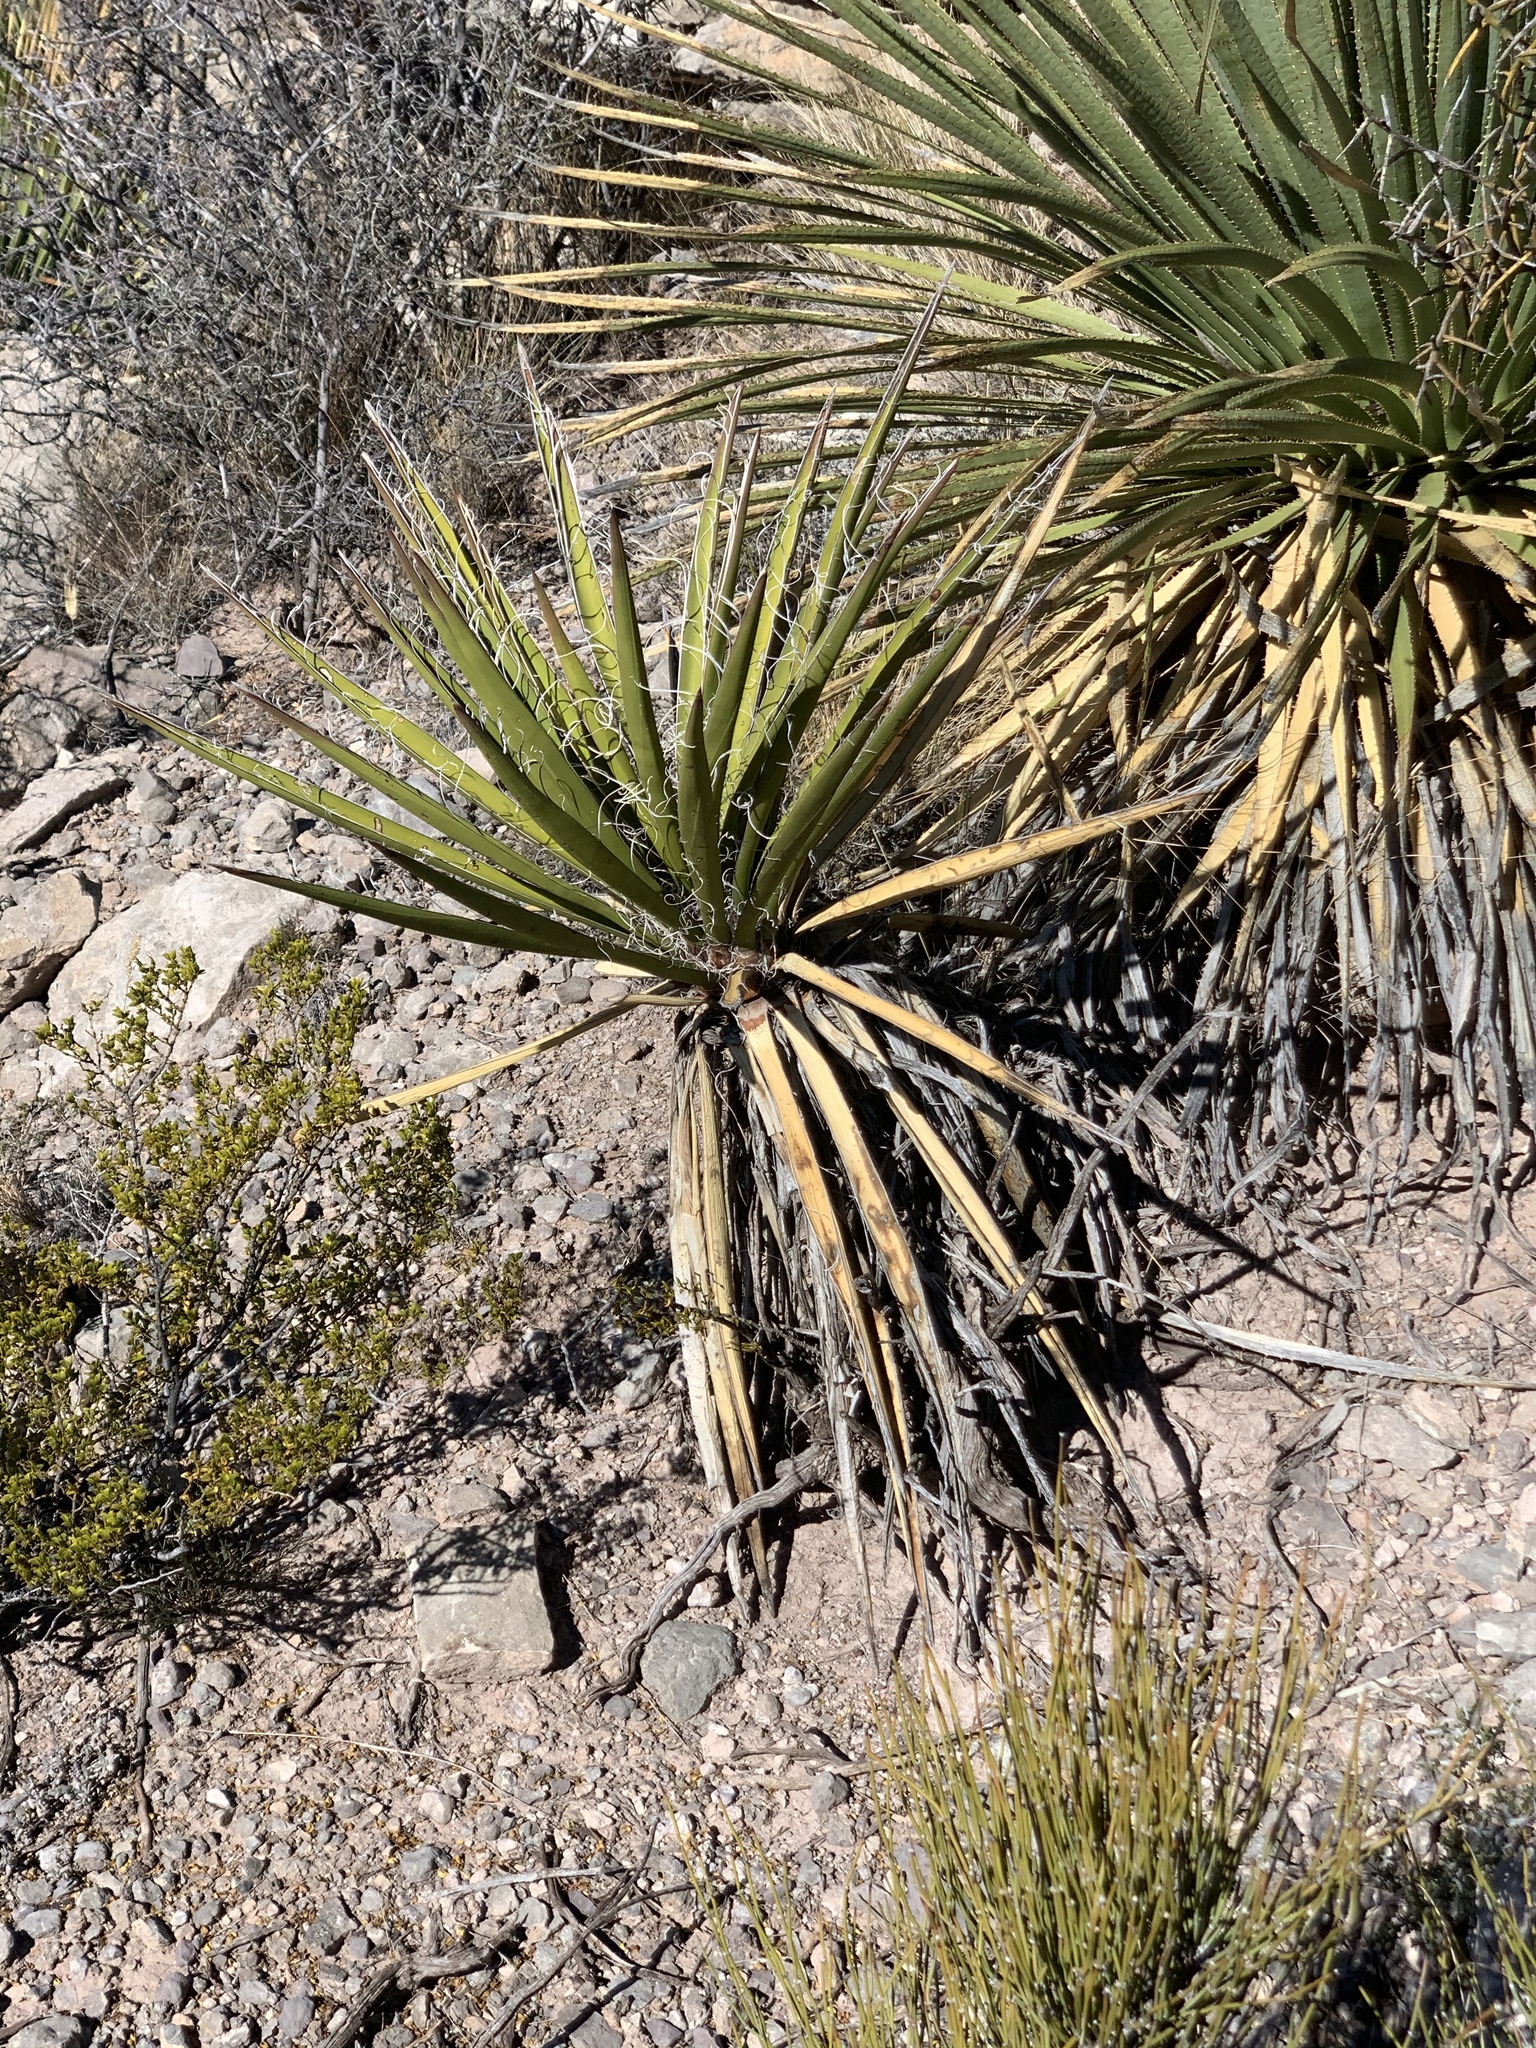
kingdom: Plantae
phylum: Tracheophyta
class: Liliopsida
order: Asparagales
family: Asparagaceae
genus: Yucca
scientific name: Yucca treculiana
